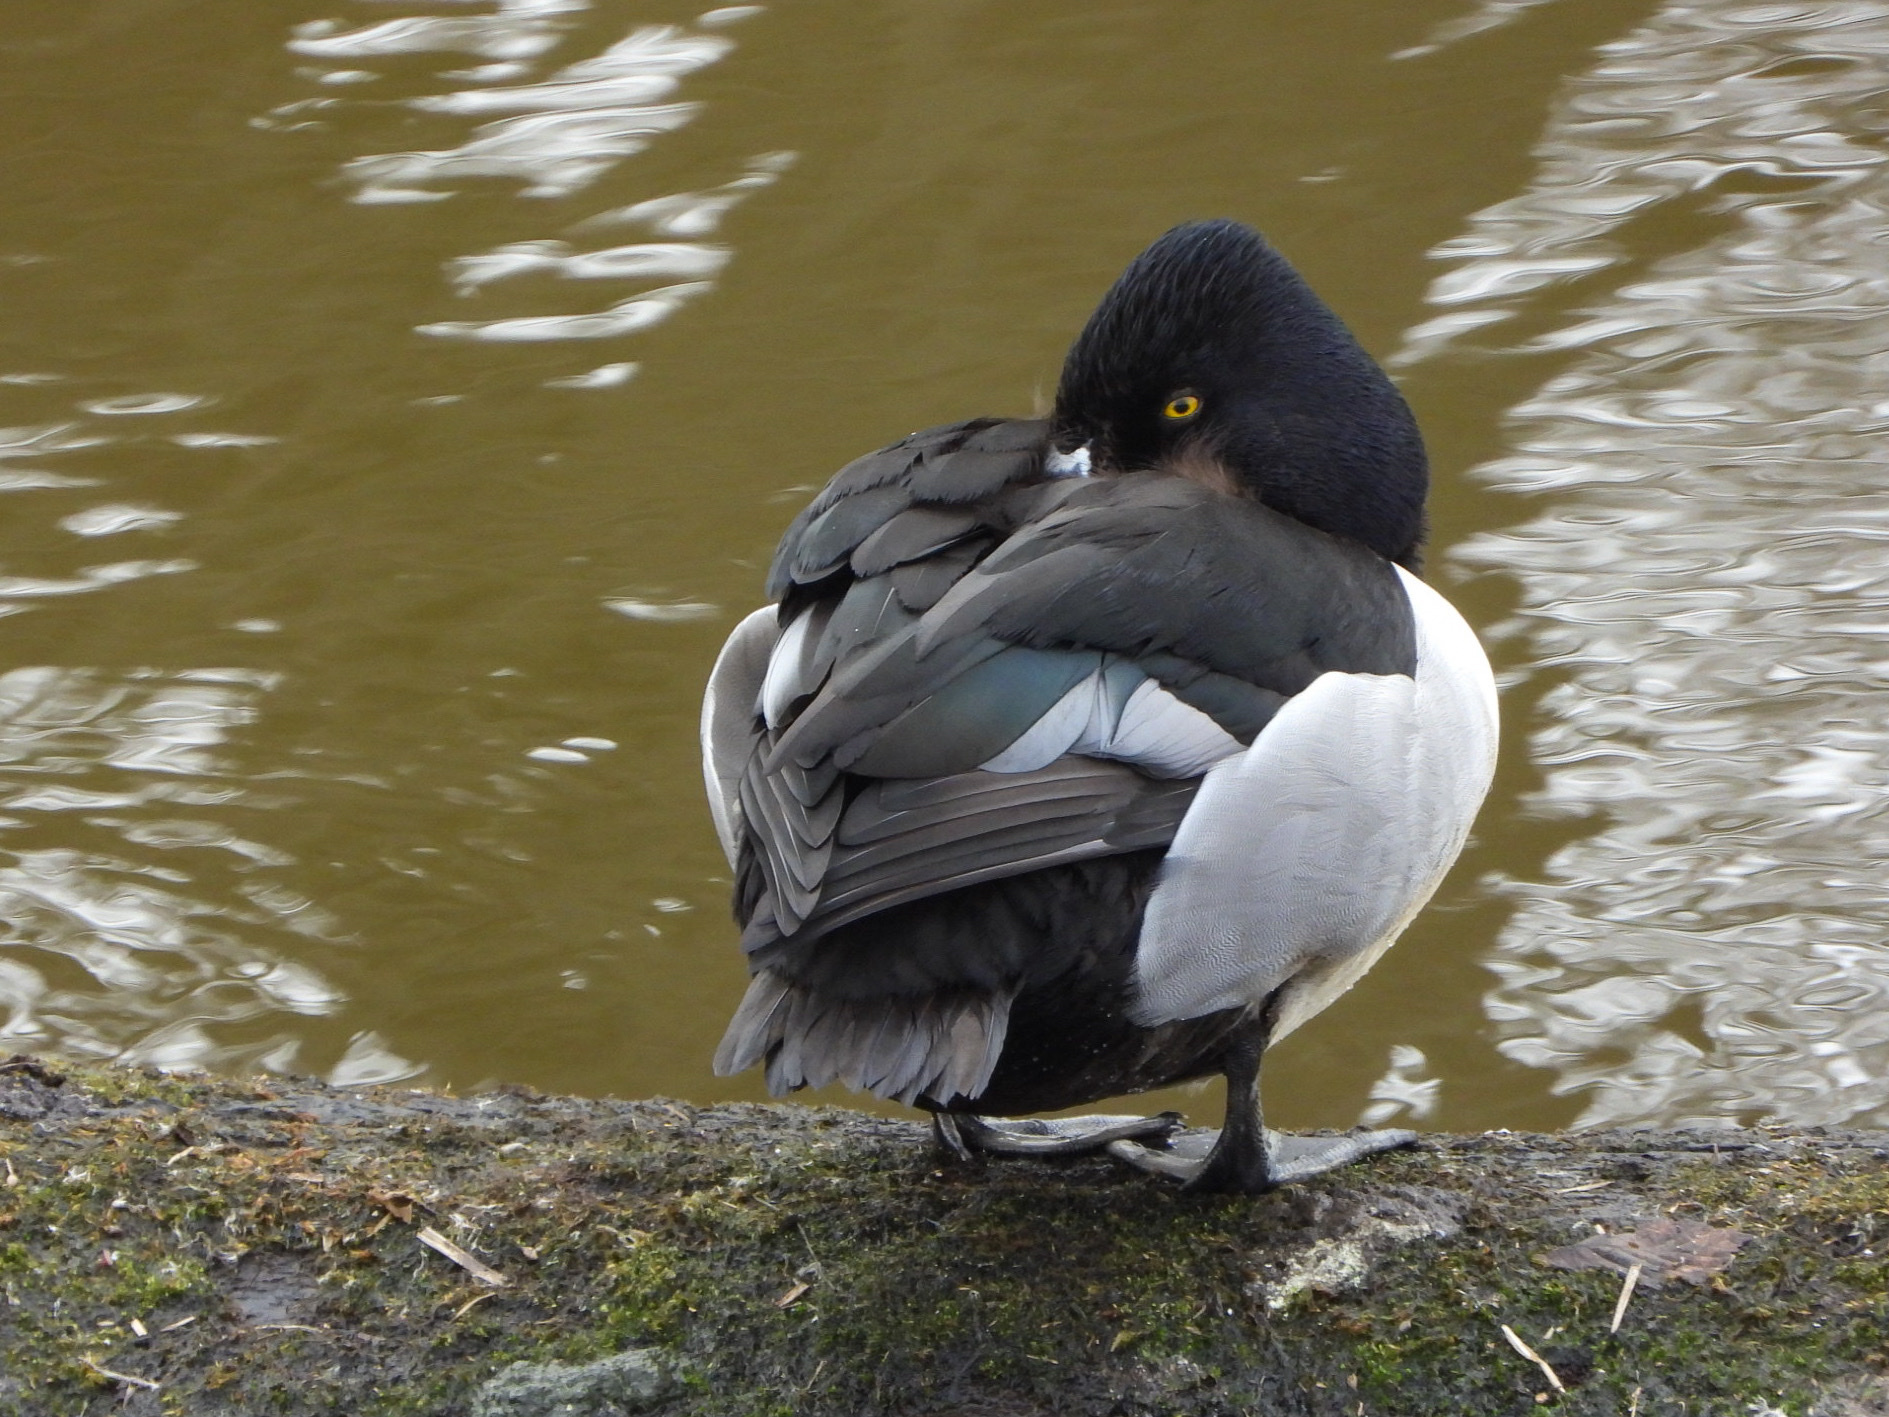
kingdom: Animalia
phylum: Chordata
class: Aves
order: Anseriformes
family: Anatidae
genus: Aythya
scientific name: Aythya collaris
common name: Ring-necked duck
